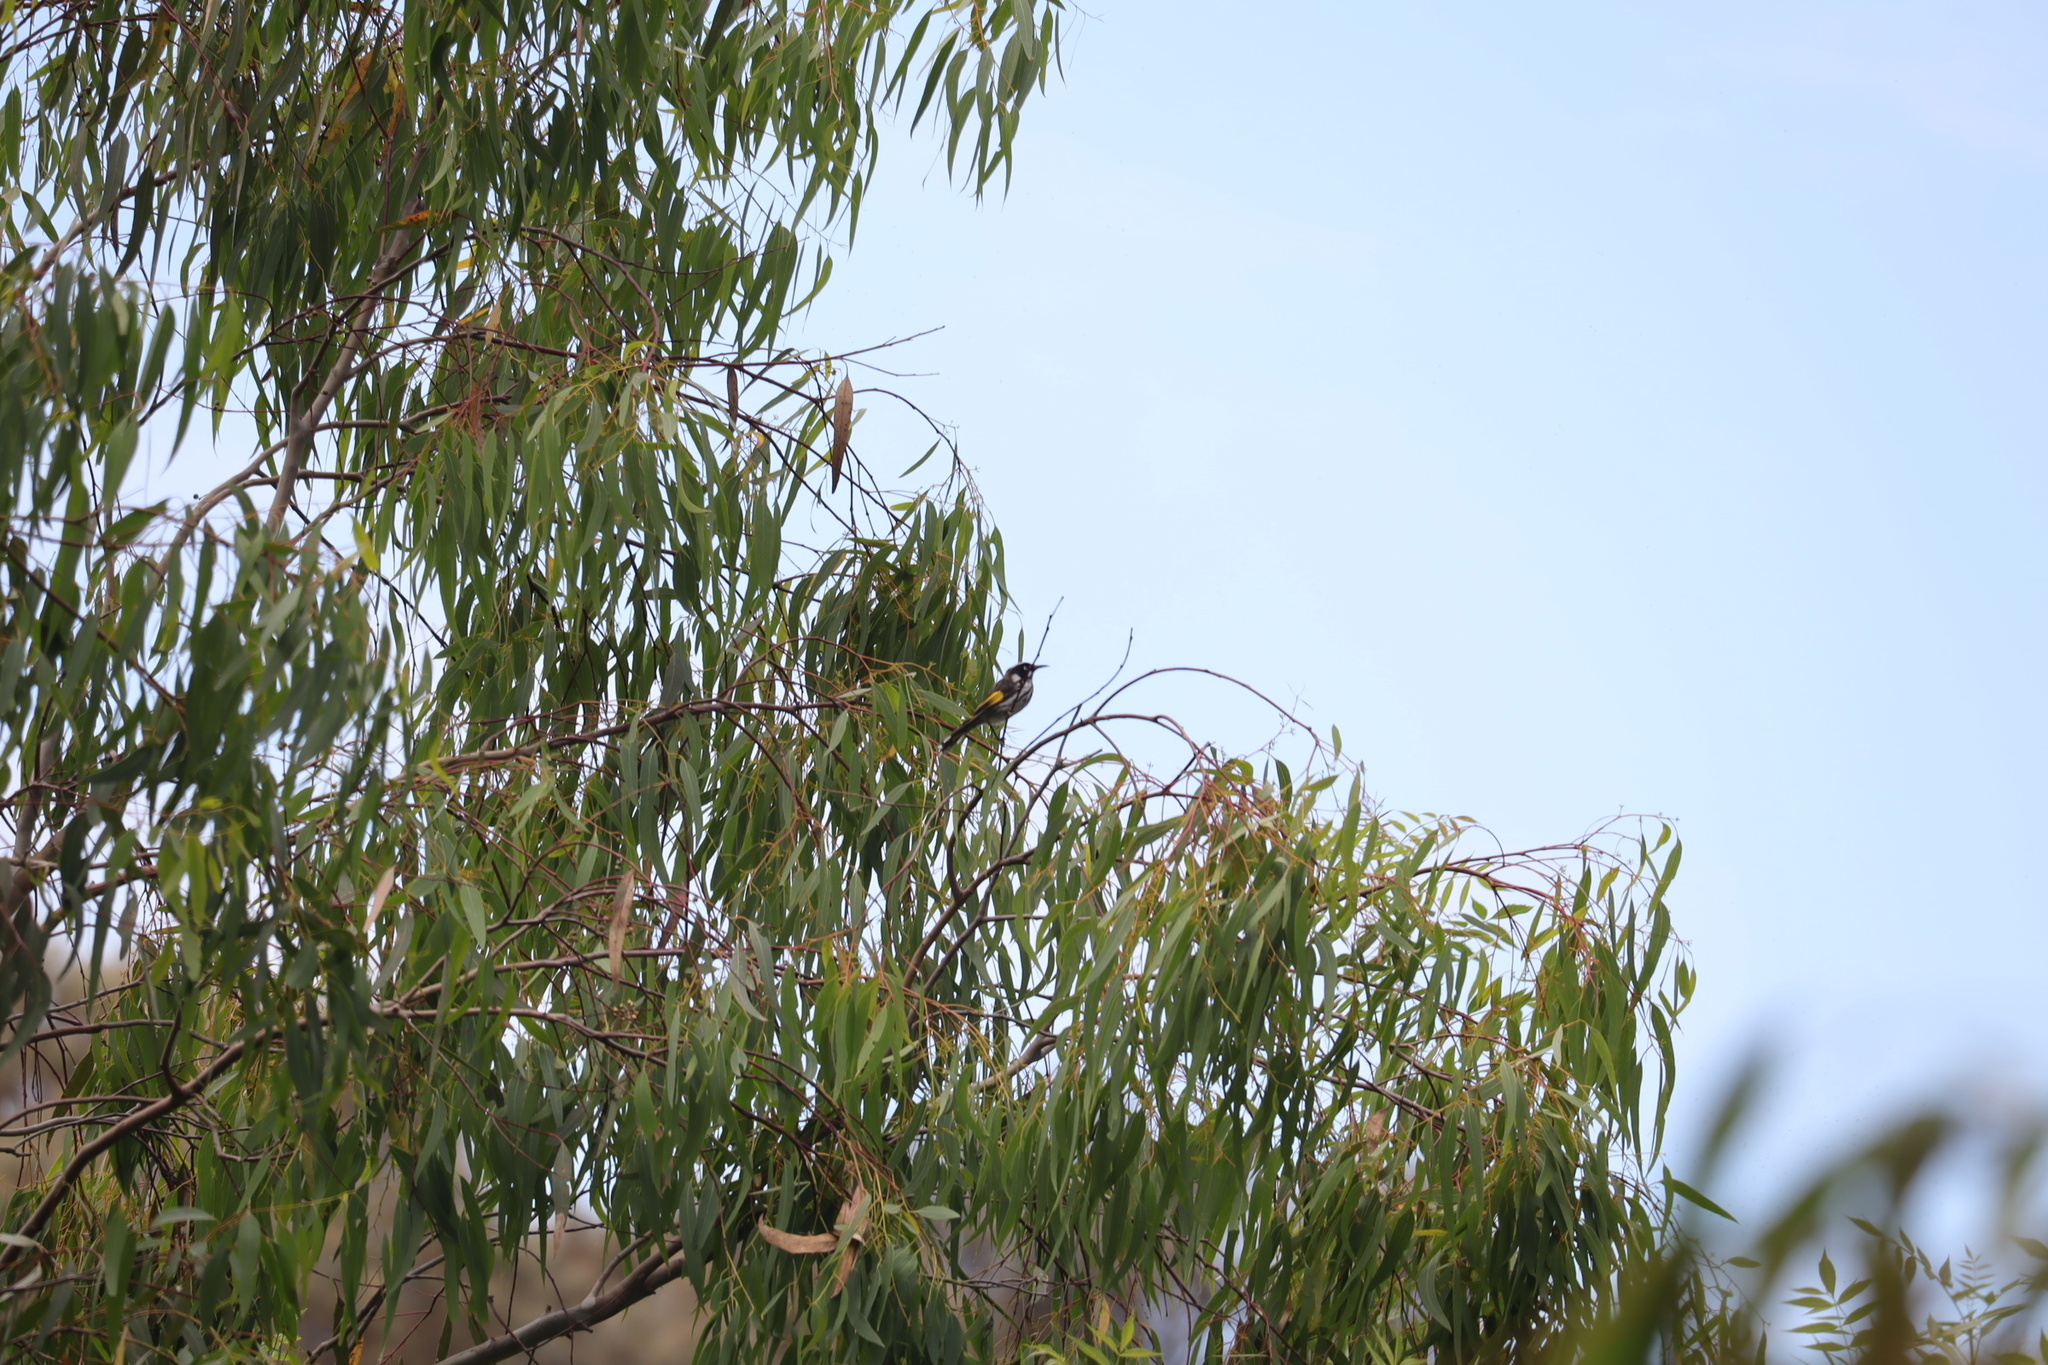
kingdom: Animalia
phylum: Chordata
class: Aves
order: Passeriformes
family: Meliphagidae
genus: Phylidonyris
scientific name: Phylidonyris novaehollandiae
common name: New holland honeyeater
